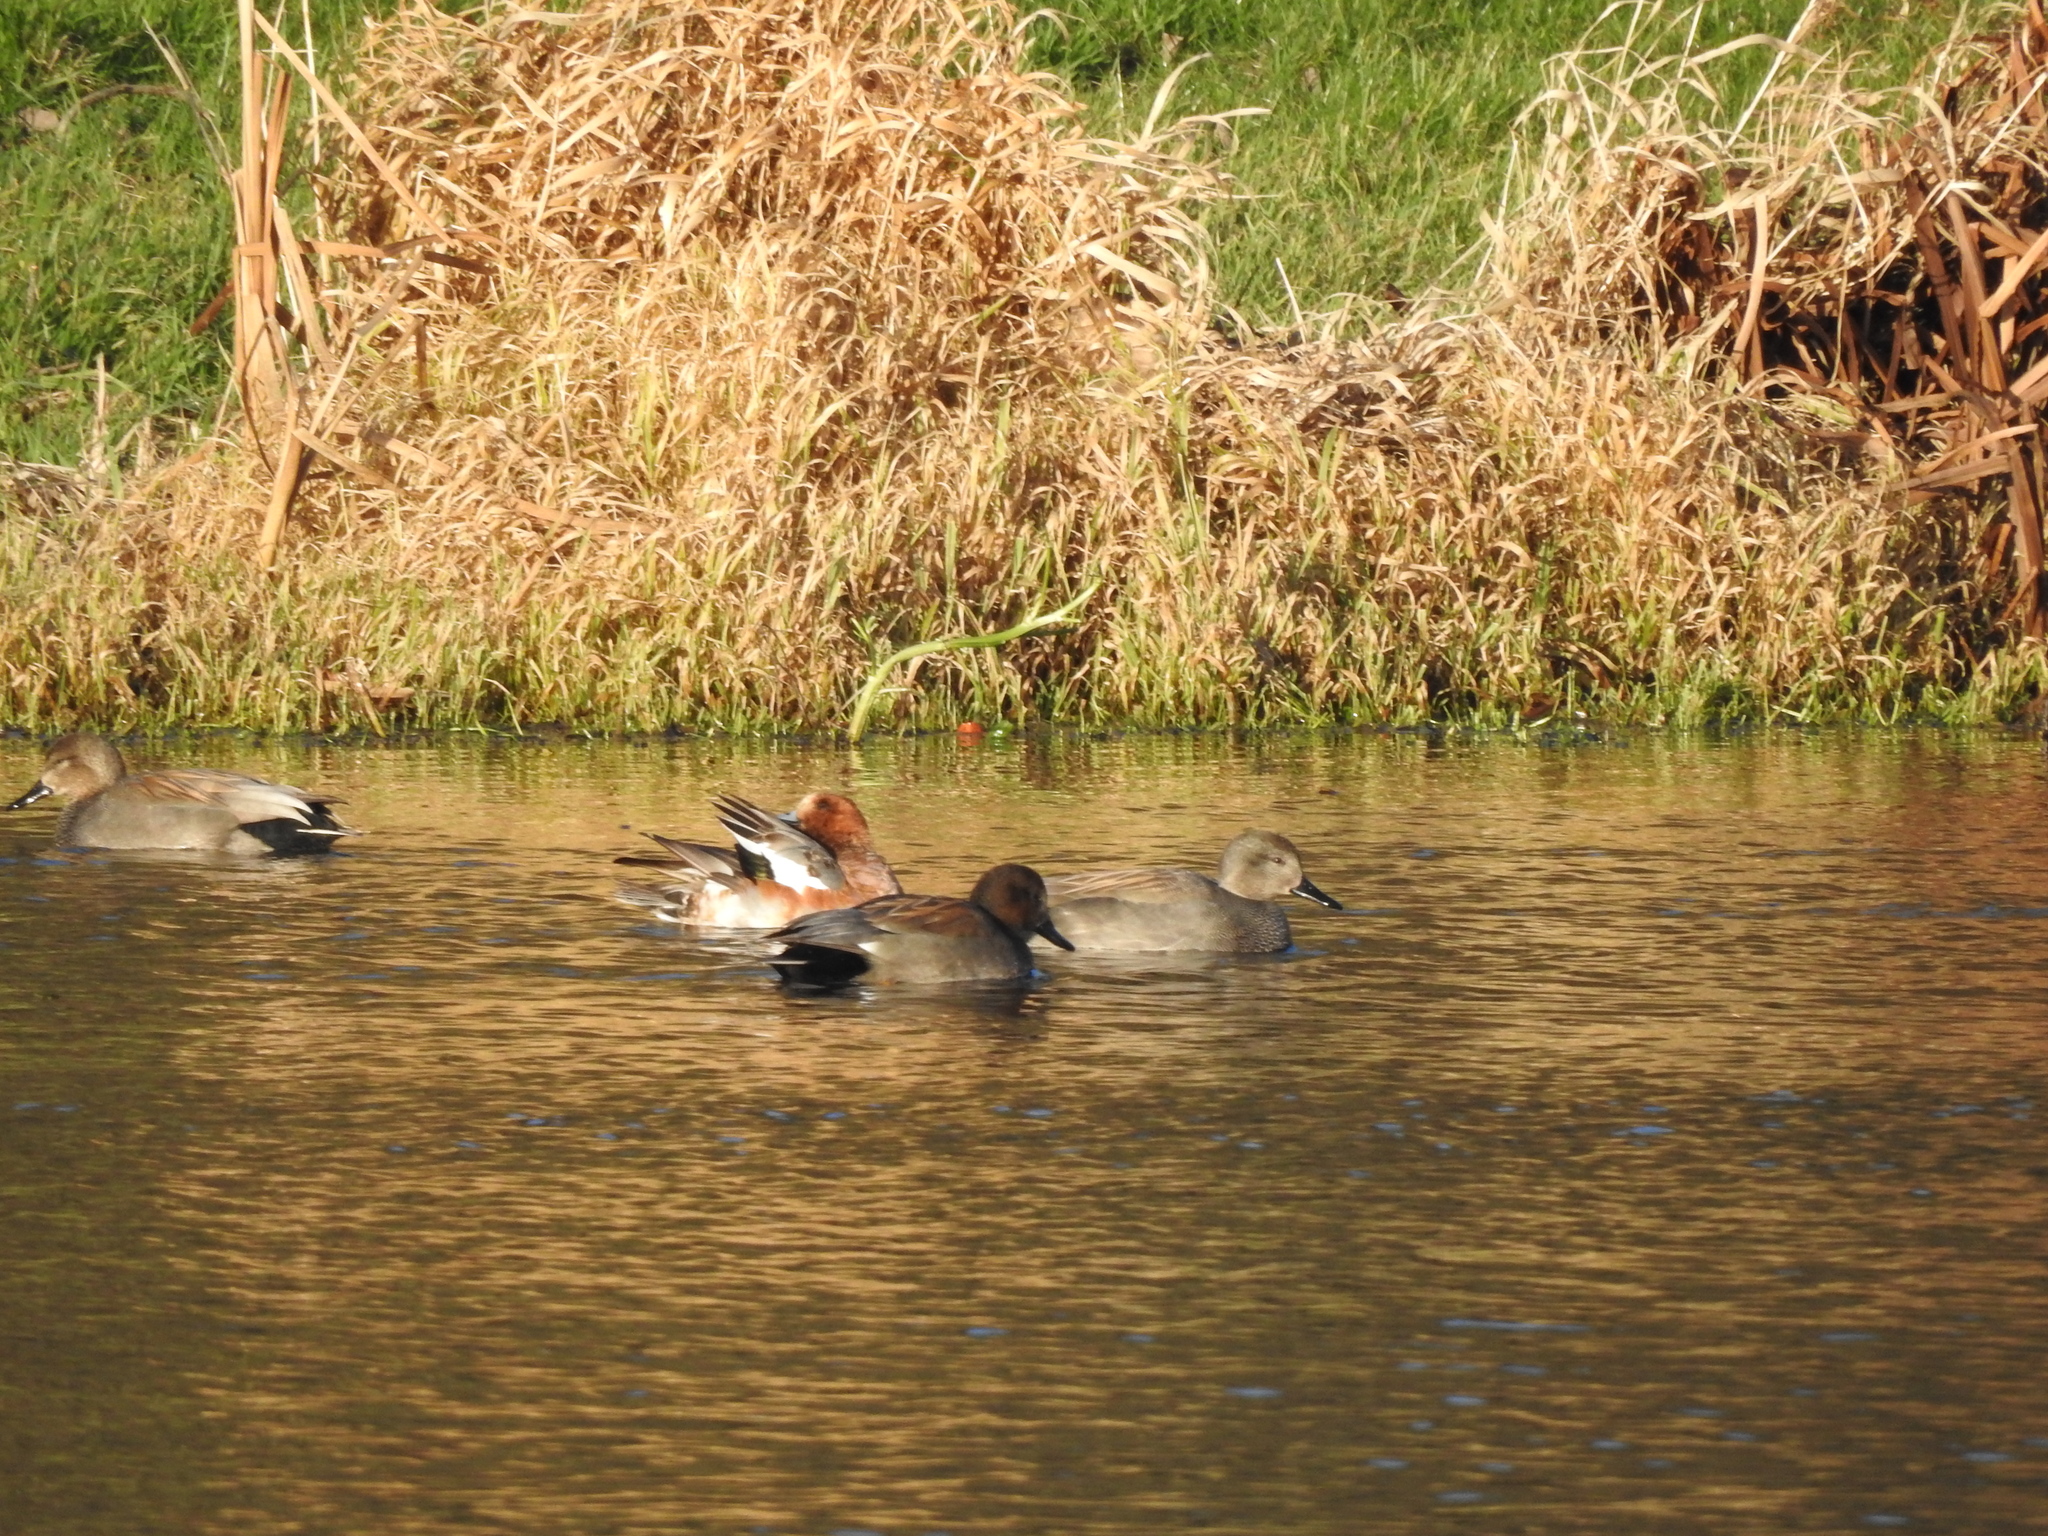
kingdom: Animalia
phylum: Chordata
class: Aves
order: Anseriformes
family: Anatidae
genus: Mareca
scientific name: Mareca strepera
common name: Gadwall
